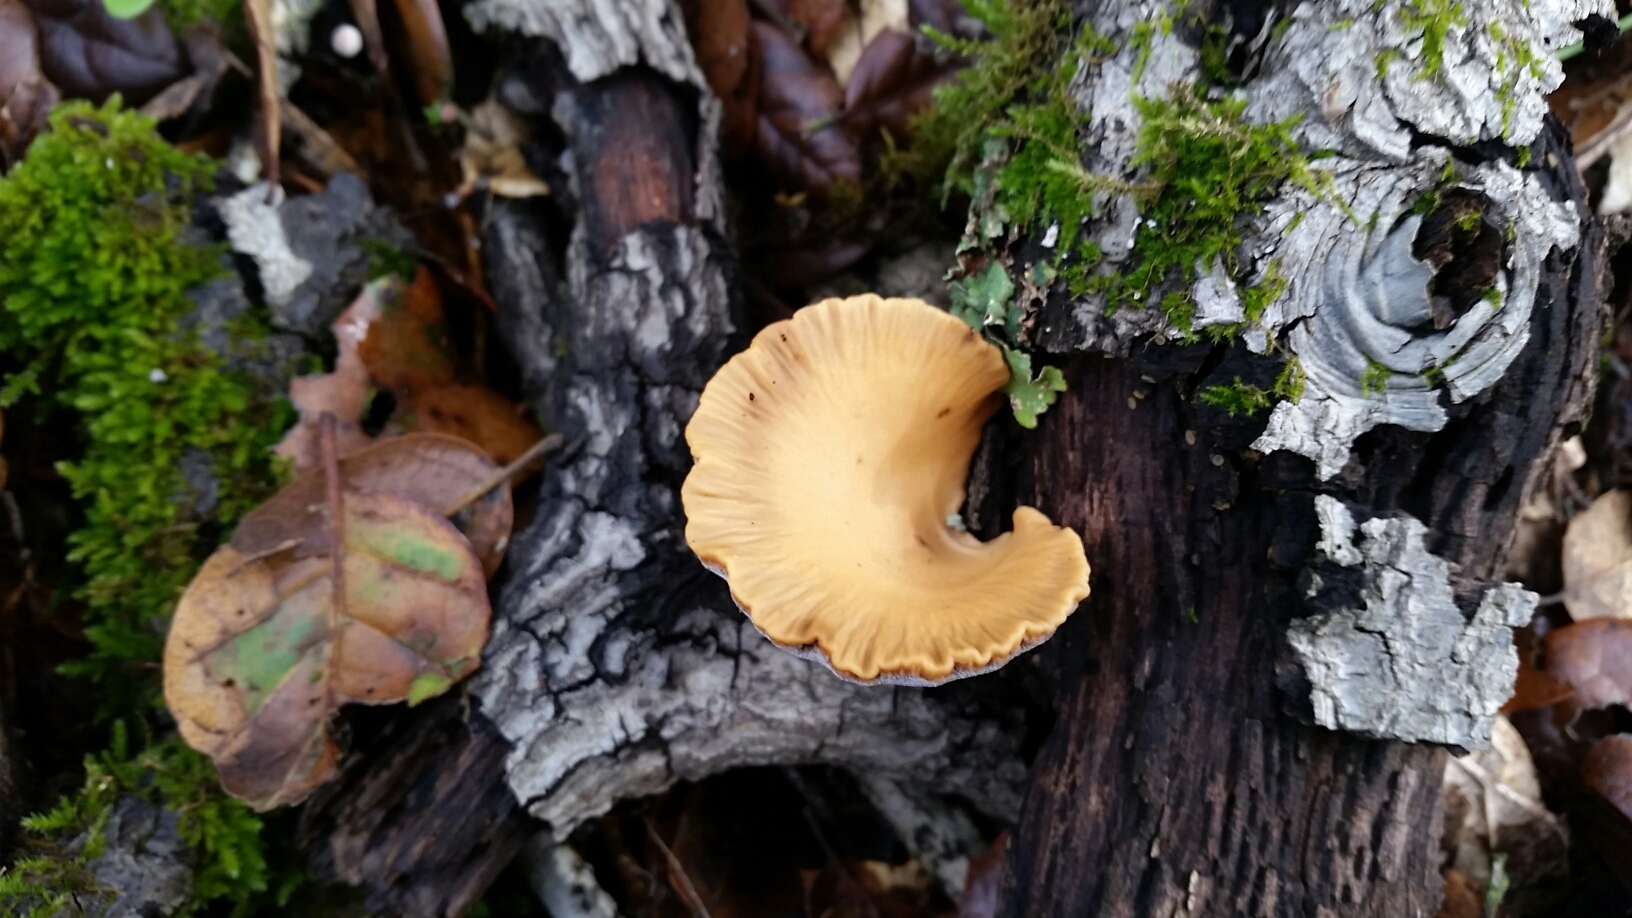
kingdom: Fungi
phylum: Basidiomycota
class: Agaricomycetes
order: Polyporales
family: Phanerochaetaceae
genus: Bjerkandera
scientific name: Bjerkandera fumosa
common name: Big smoky bracket
